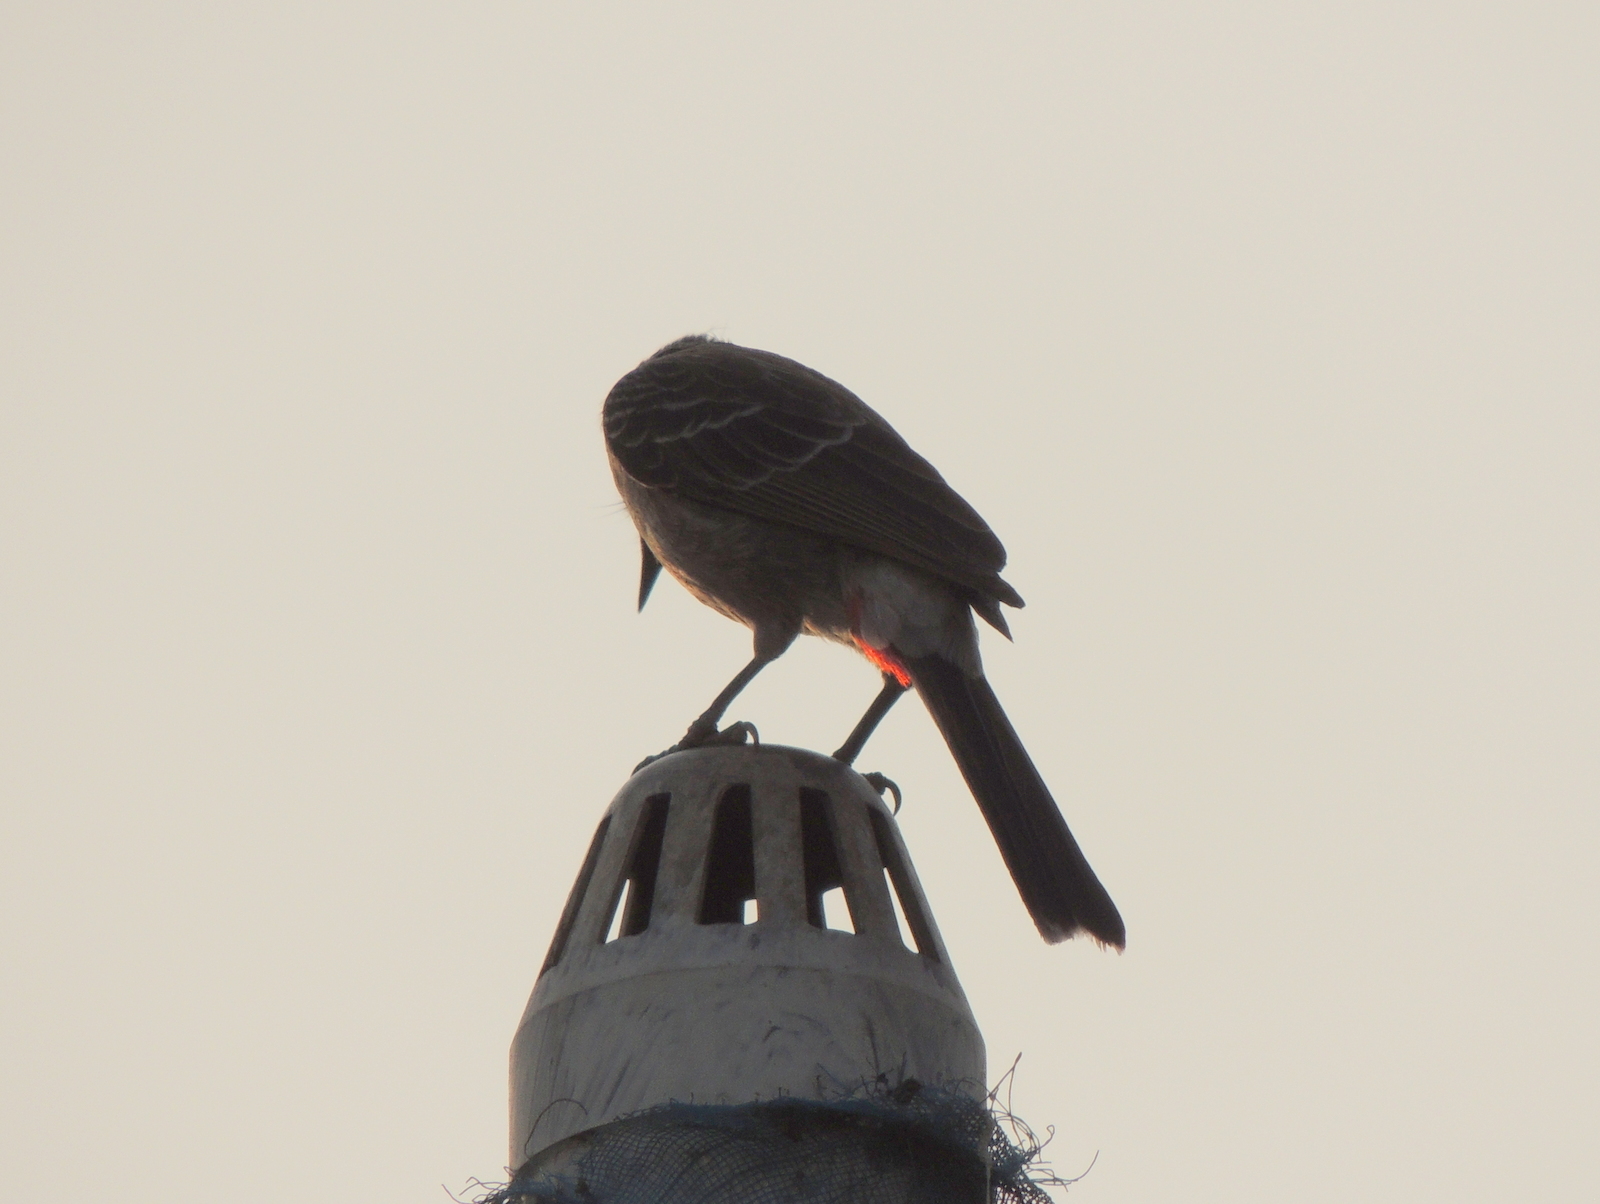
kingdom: Animalia
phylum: Chordata
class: Aves
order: Passeriformes
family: Pycnonotidae
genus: Pycnonotus
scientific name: Pycnonotus cafer
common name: Red-vented bulbul
